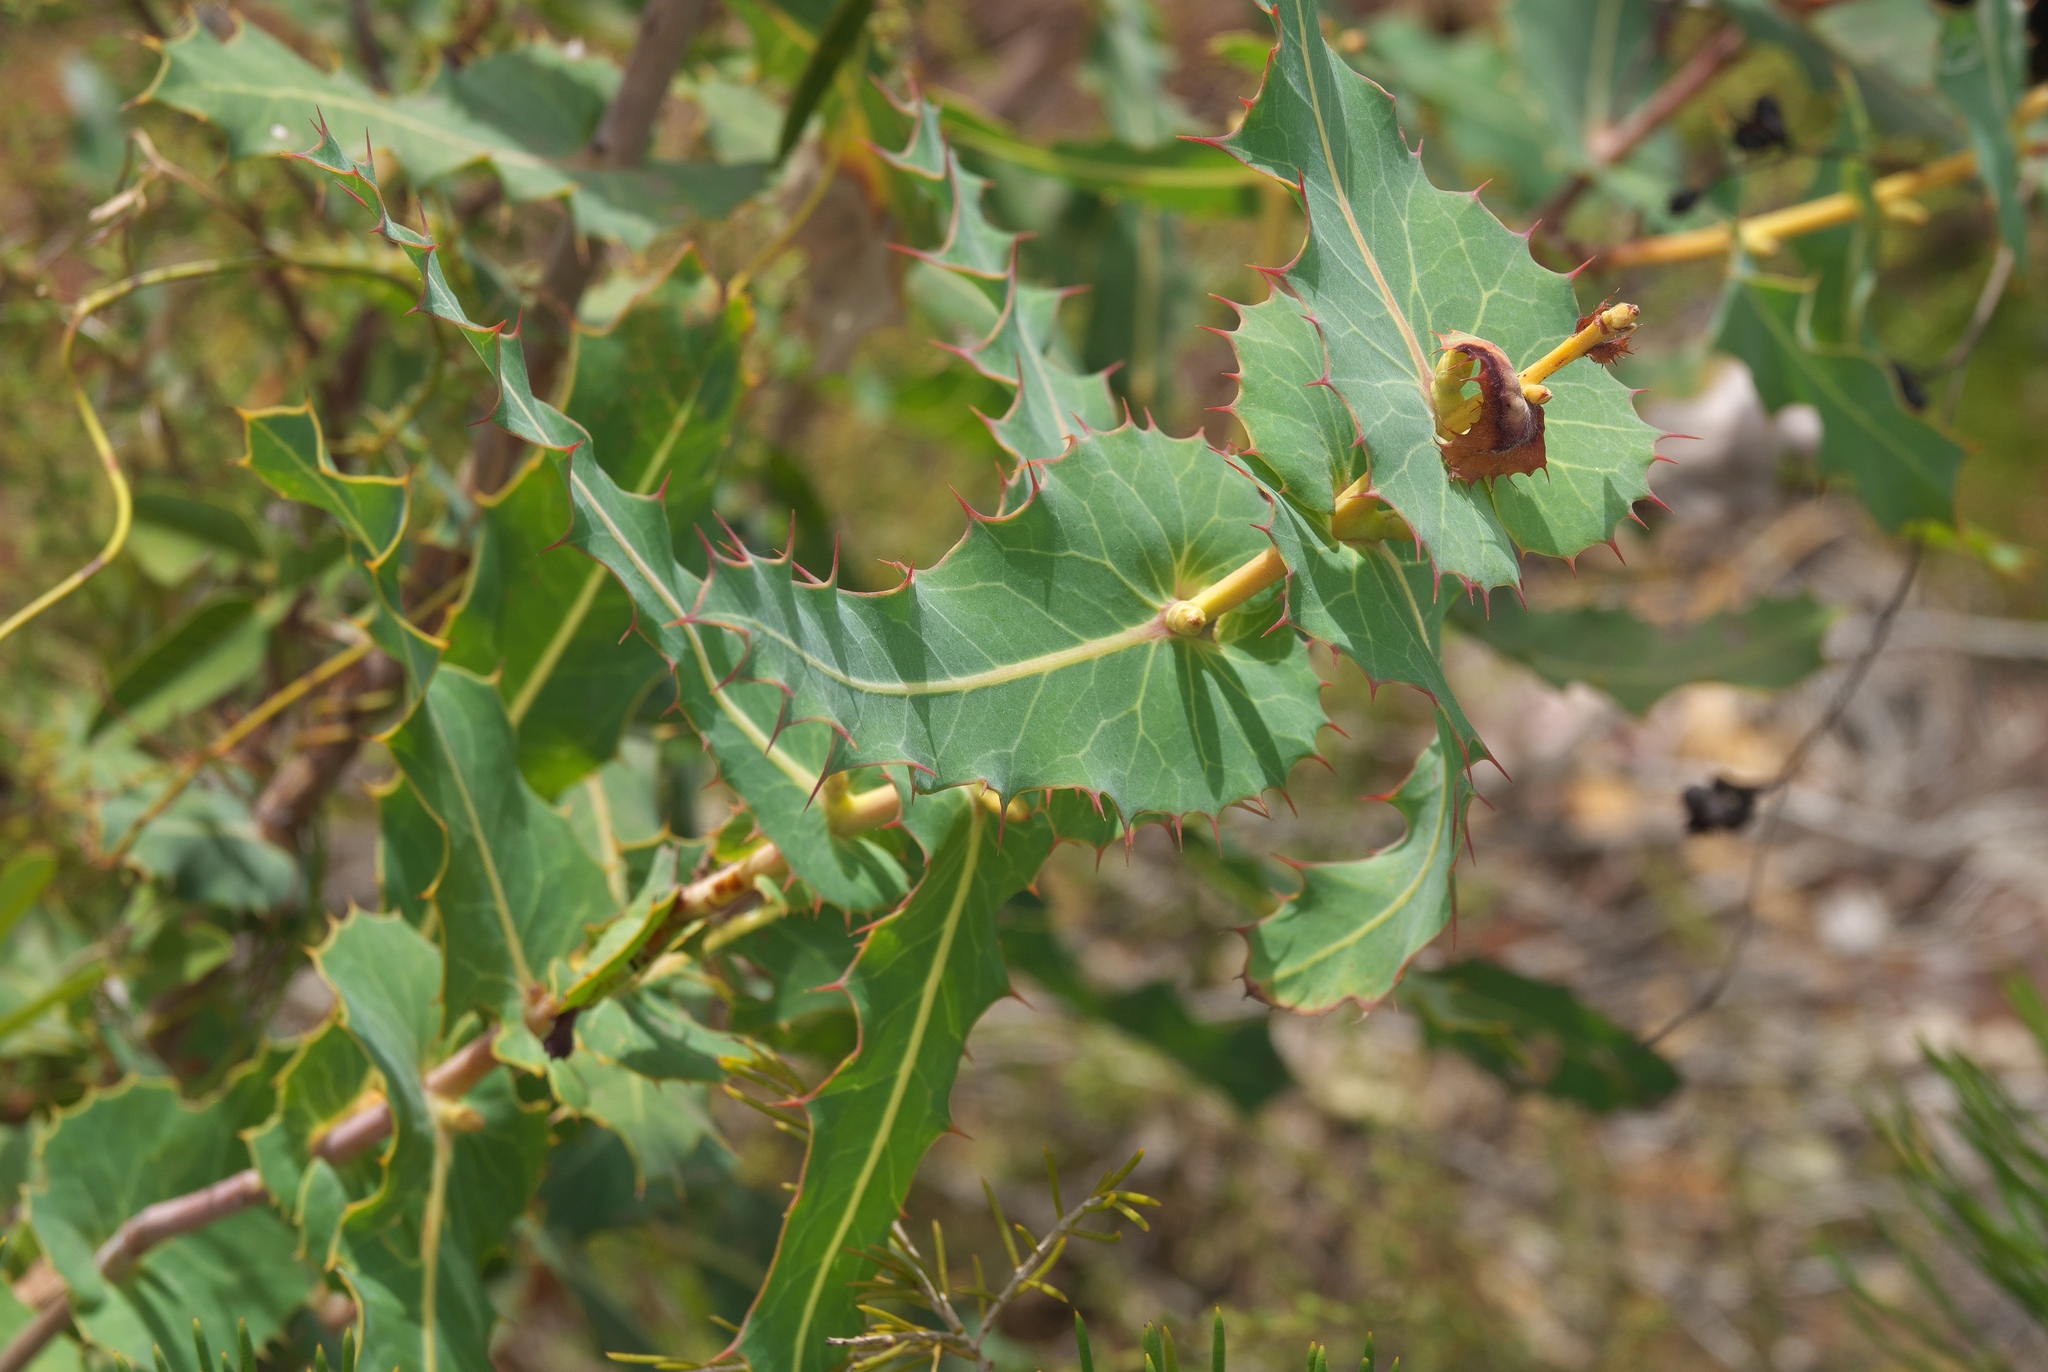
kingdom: Plantae
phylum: Tracheophyta
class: Magnoliopsida
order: Proteales
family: Proteaceae
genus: Hakea
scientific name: Hakea amplexicaulis
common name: Prickly hakea
